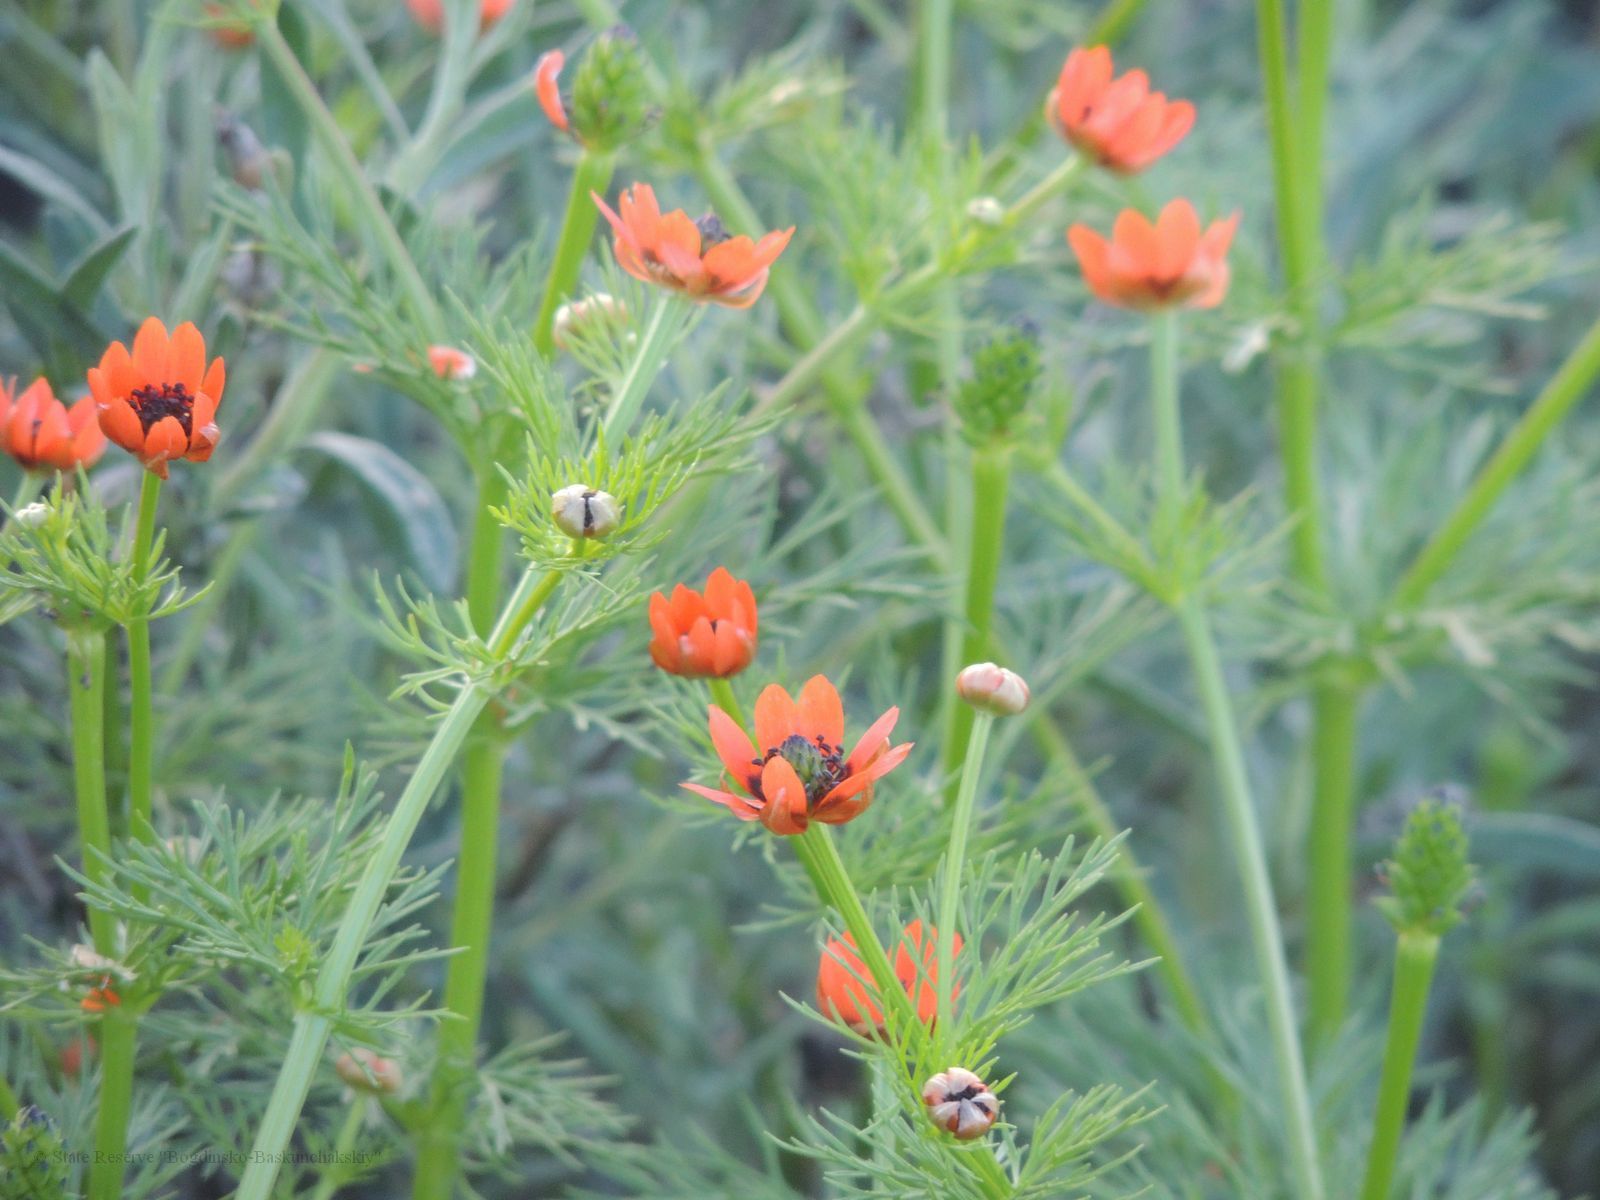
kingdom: Plantae
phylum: Tracheophyta
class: Magnoliopsida
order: Ranunculales
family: Ranunculaceae
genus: Adonis
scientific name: Adonis aestivalis
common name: Summer pheasant's-eye
